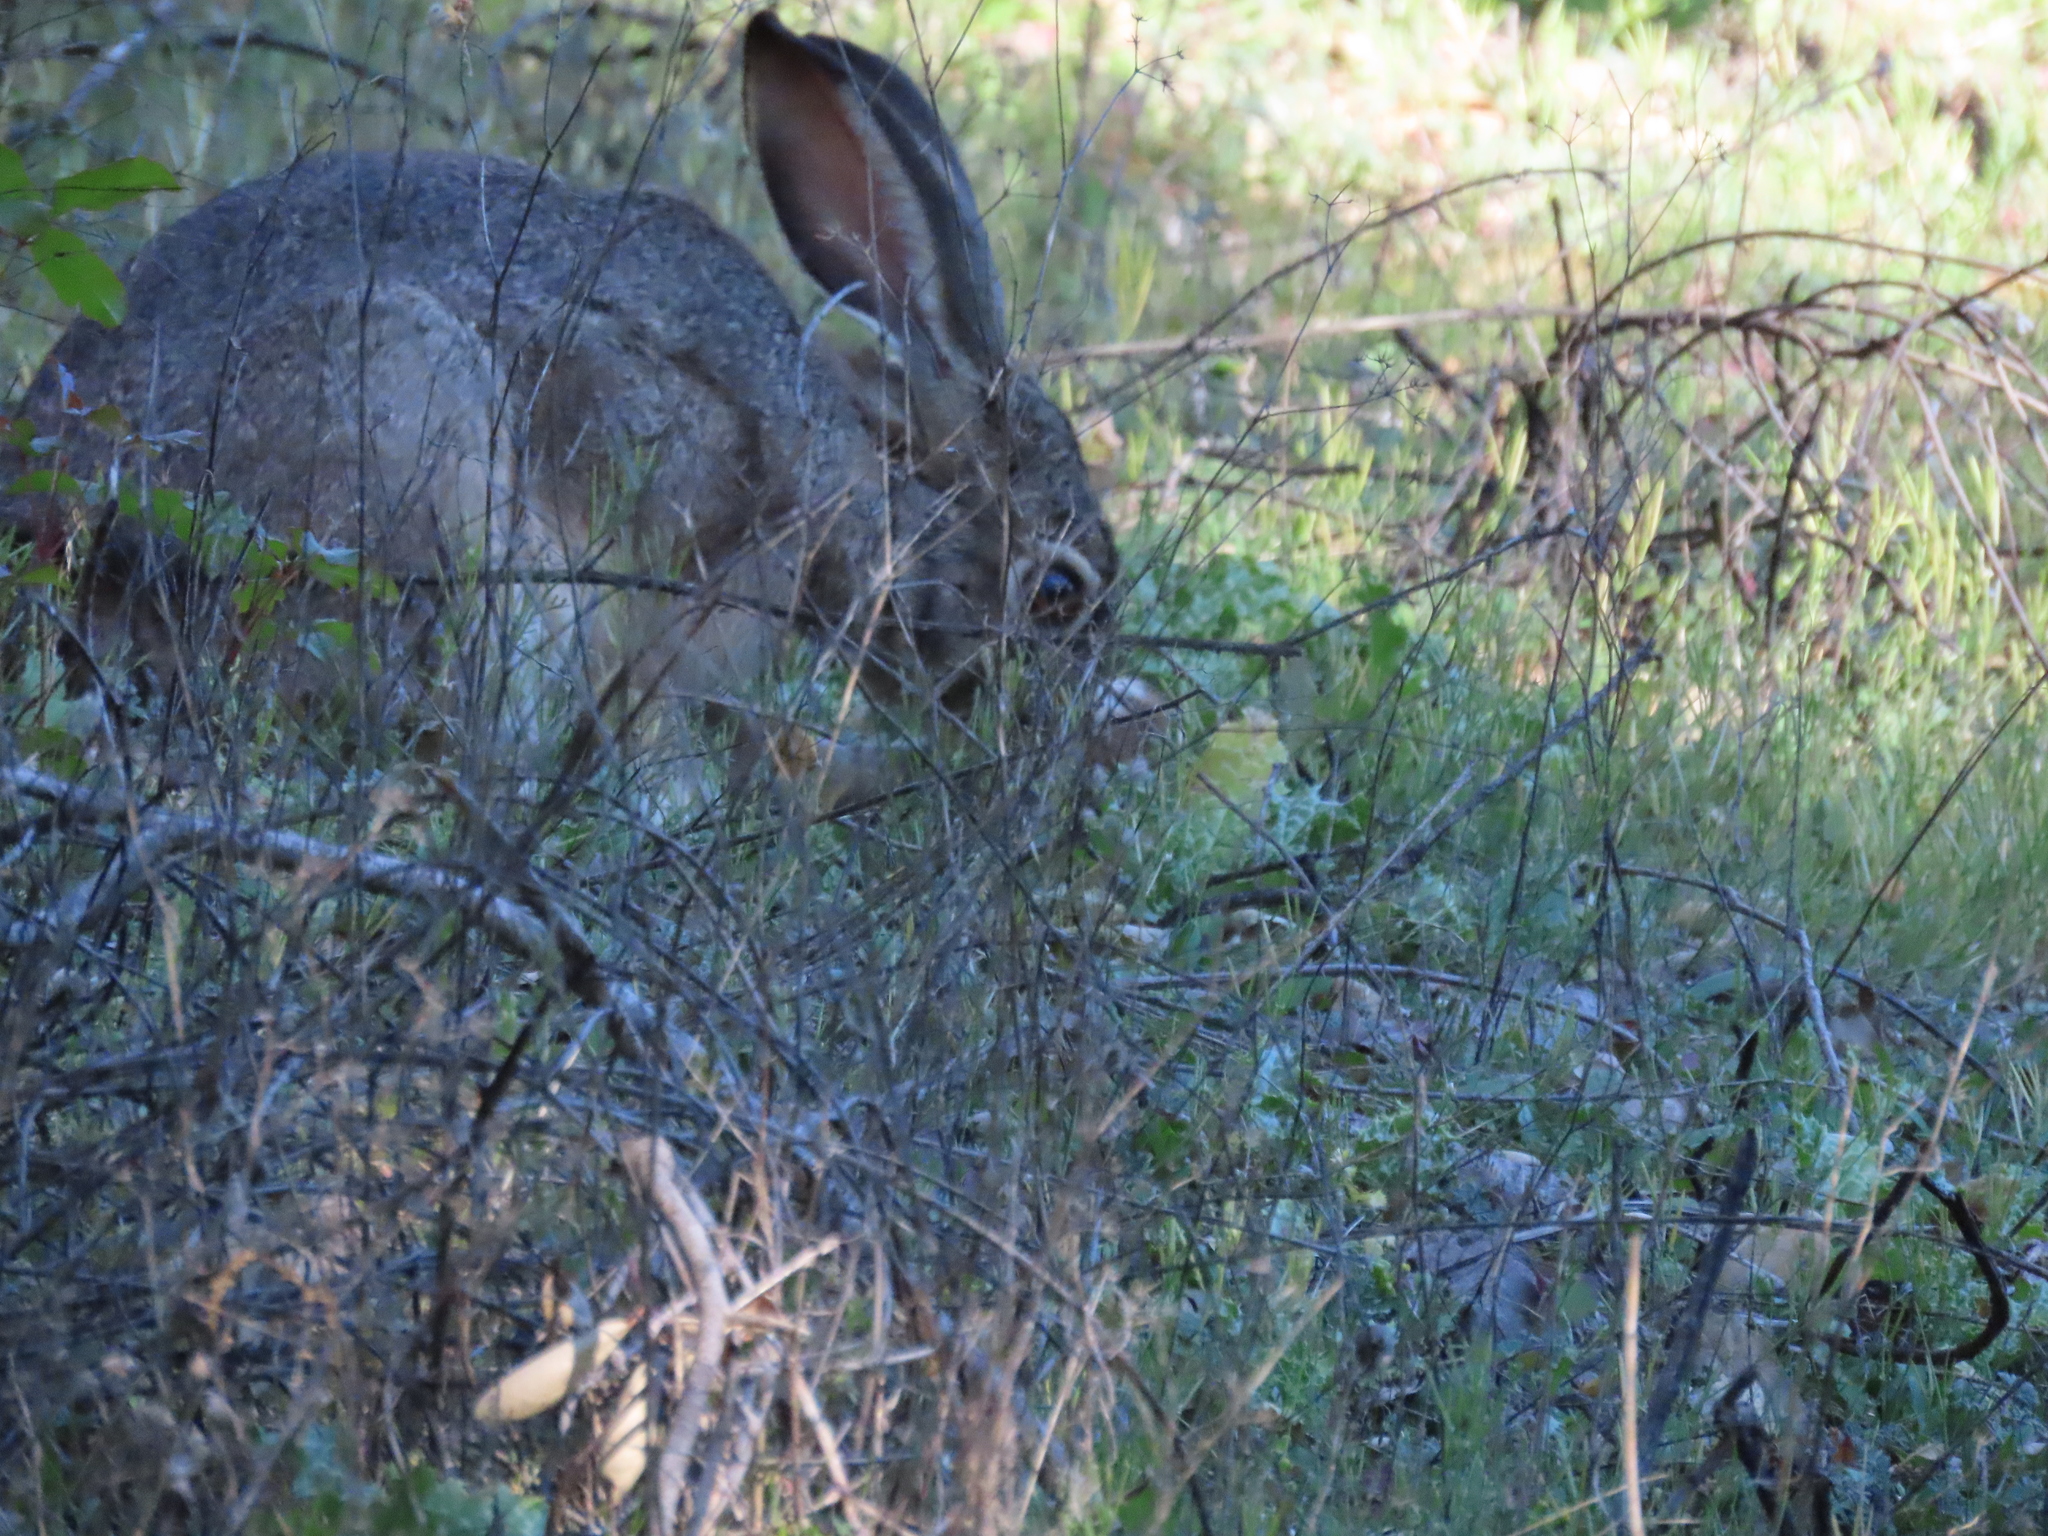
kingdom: Animalia
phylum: Chordata
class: Mammalia
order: Lagomorpha
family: Leporidae
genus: Lepus
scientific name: Lepus californicus
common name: Black-tailed jackrabbit
